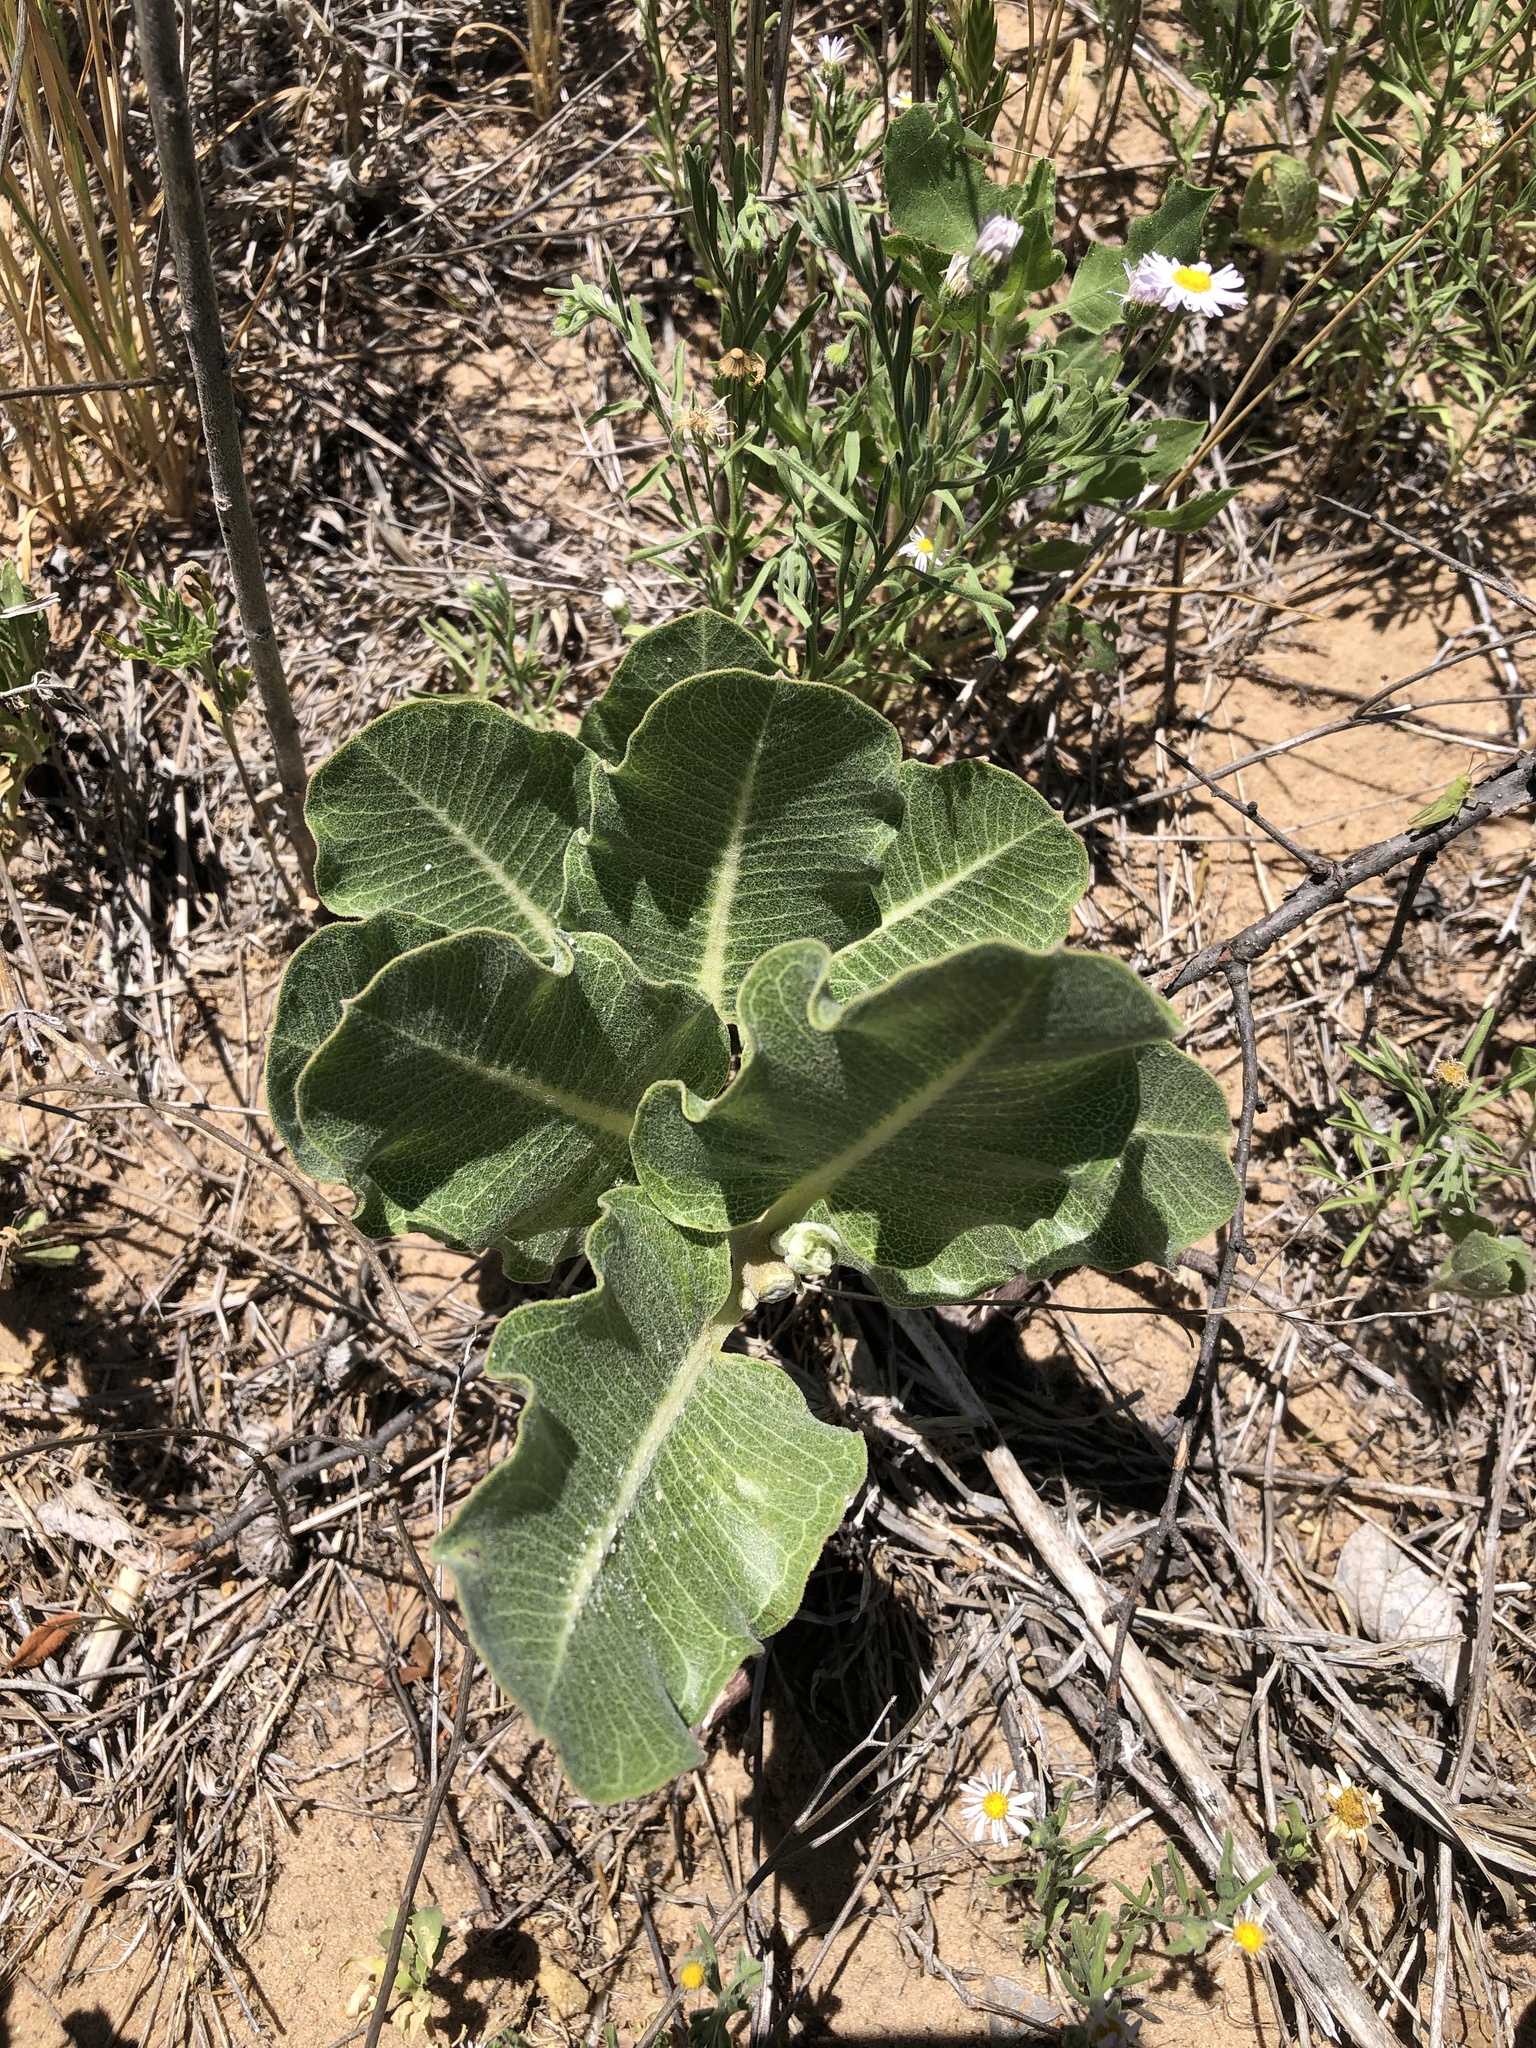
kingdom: Plantae
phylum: Tracheophyta
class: Magnoliopsida
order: Gentianales
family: Apocynaceae
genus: Asclepias
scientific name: Asclepias arenaria
